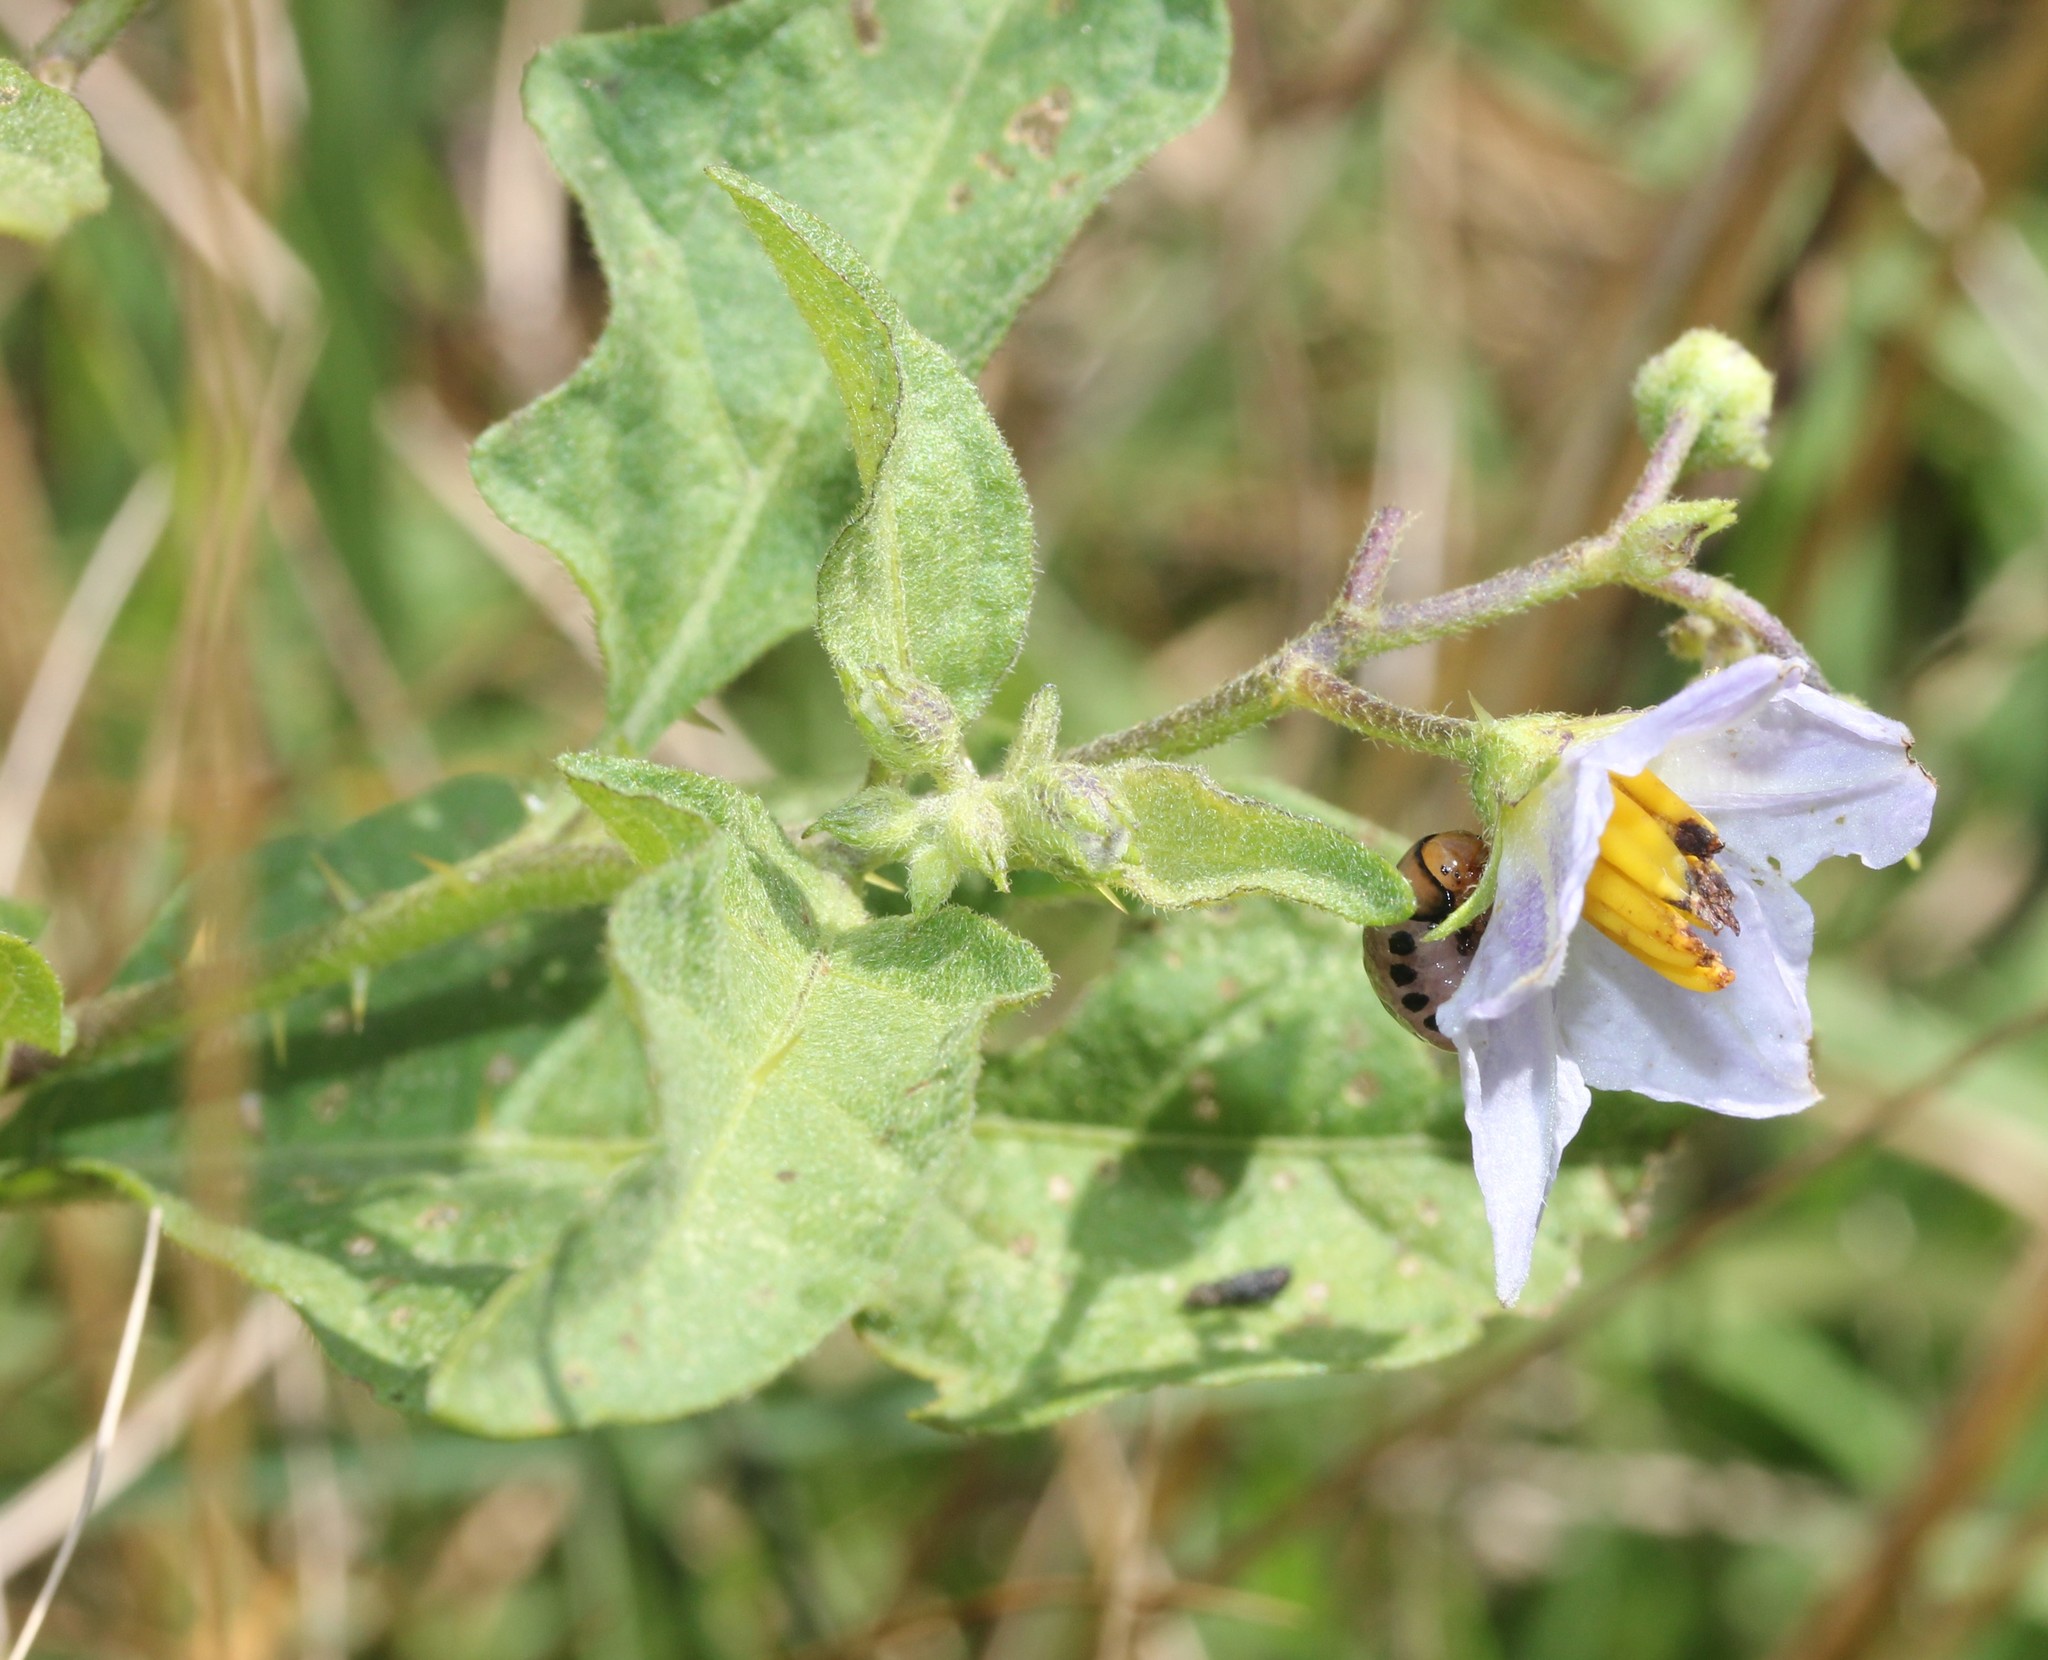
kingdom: Plantae
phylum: Tracheophyta
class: Magnoliopsida
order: Solanales
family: Solanaceae
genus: Solanum
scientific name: Solanum carolinense
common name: Horse-nettle
